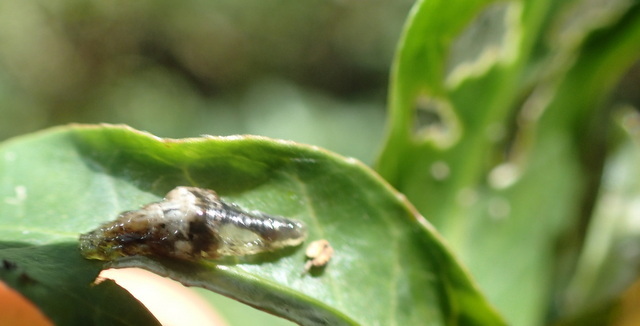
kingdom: Animalia
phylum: Arthropoda
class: Insecta
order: Diptera
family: Syrphidae
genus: Ocyptamus
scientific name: Ocyptamus fuscipennis
